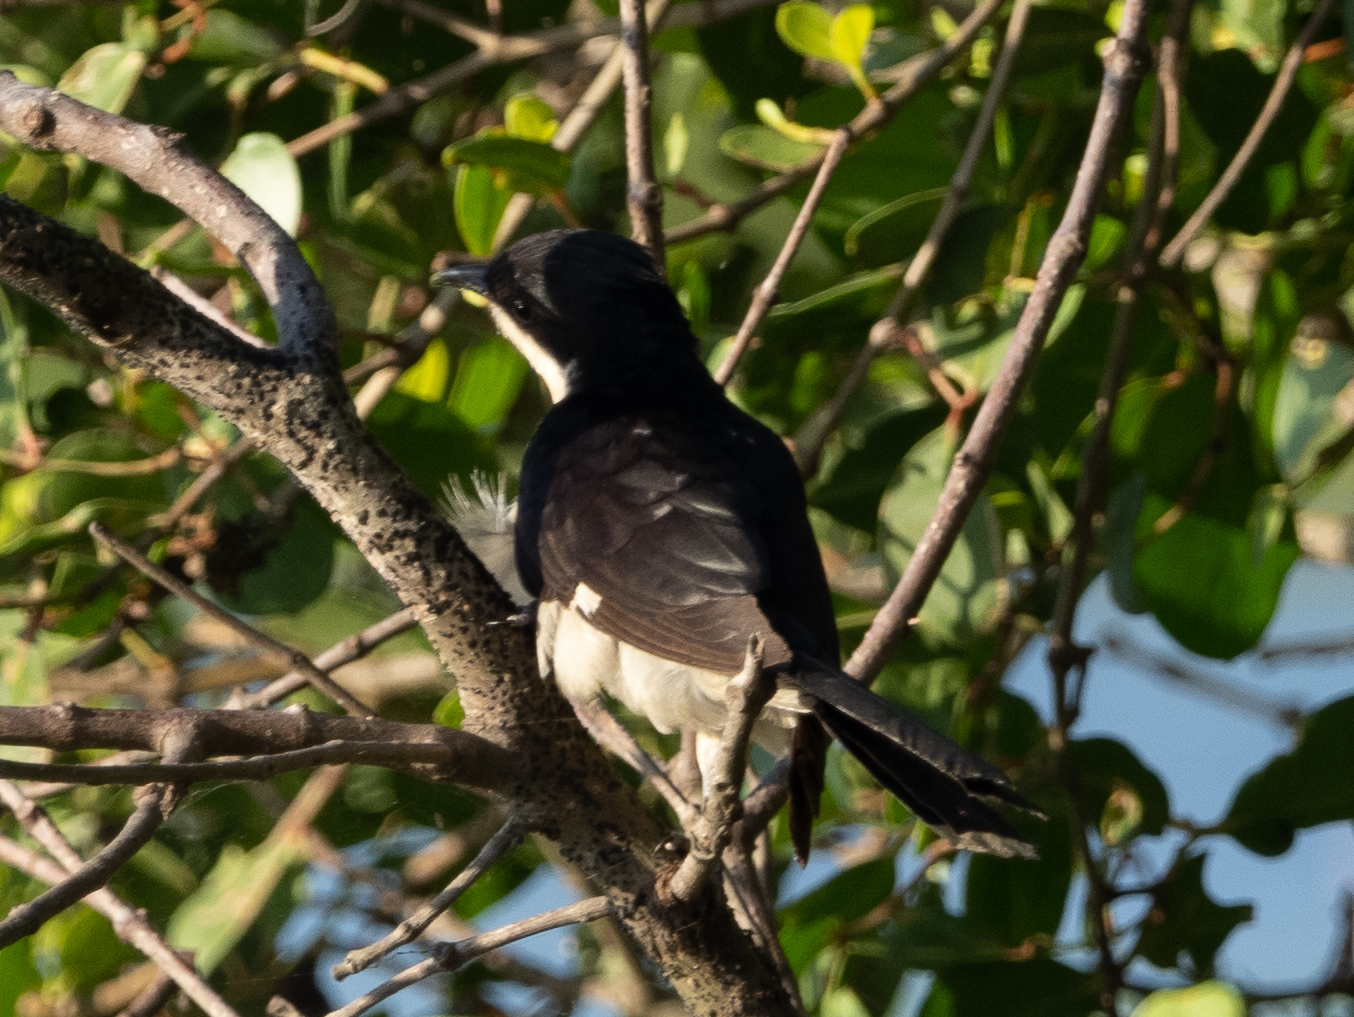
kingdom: Animalia
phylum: Chordata
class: Aves
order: Cuculiformes
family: Cuculidae
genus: Clamator
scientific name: Clamator jacobinus
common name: Jacobin cuckoo
